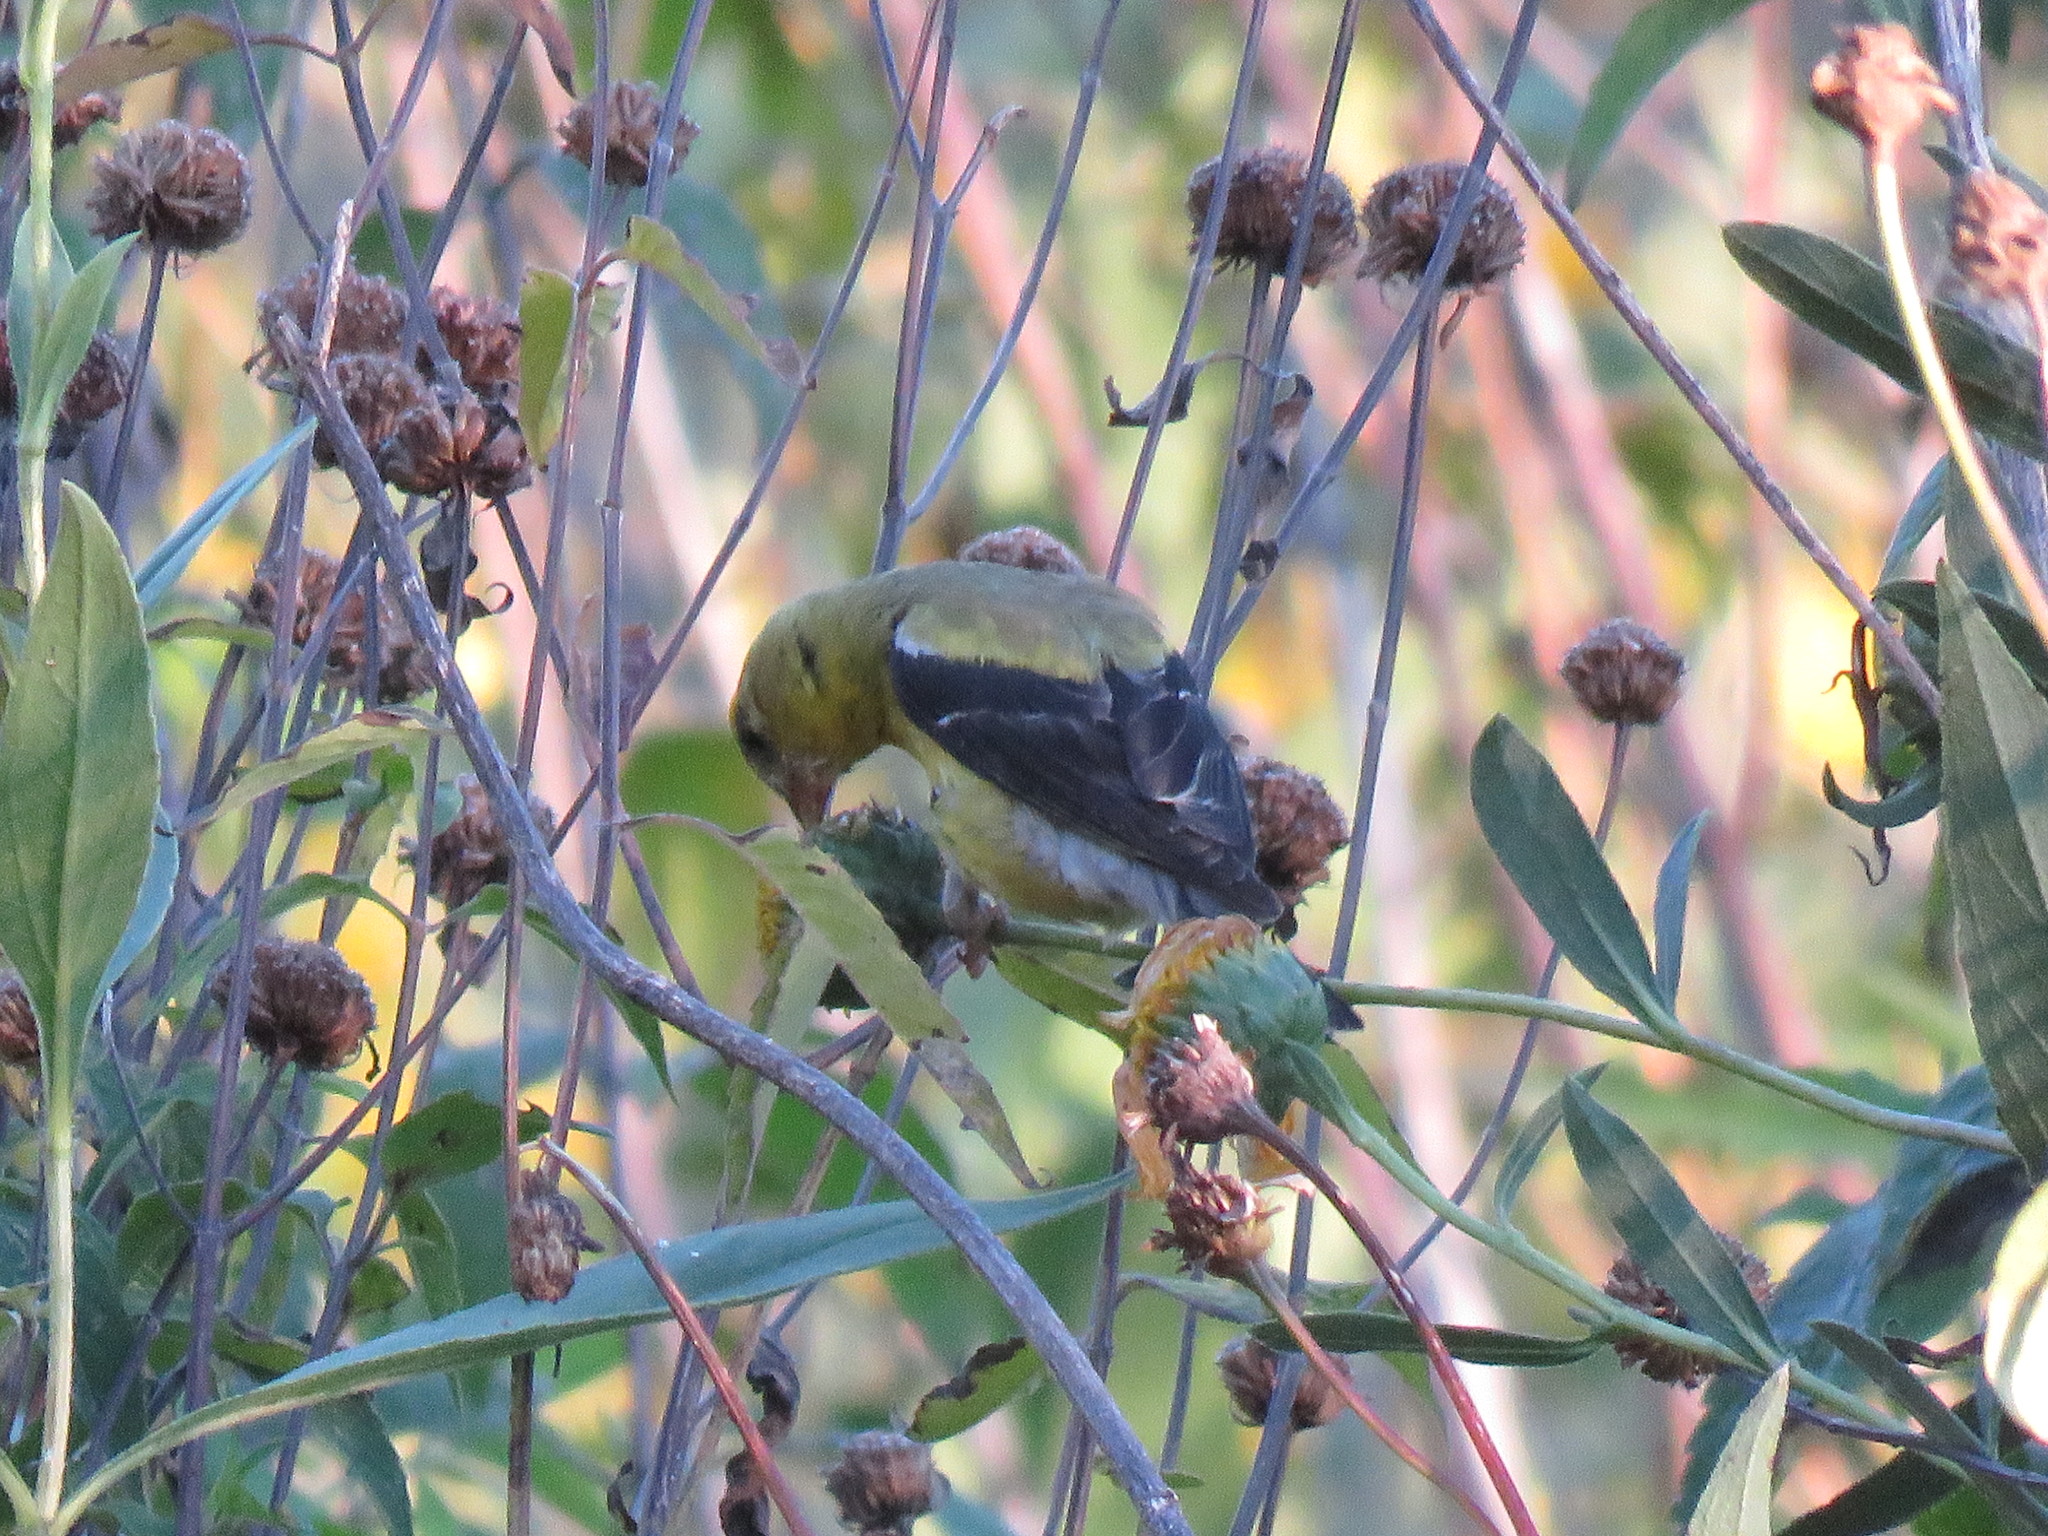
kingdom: Animalia
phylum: Chordata
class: Aves
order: Passeriformes
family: Fringillidae
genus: Spinus
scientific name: Spinus tristis
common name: American goldfinch
